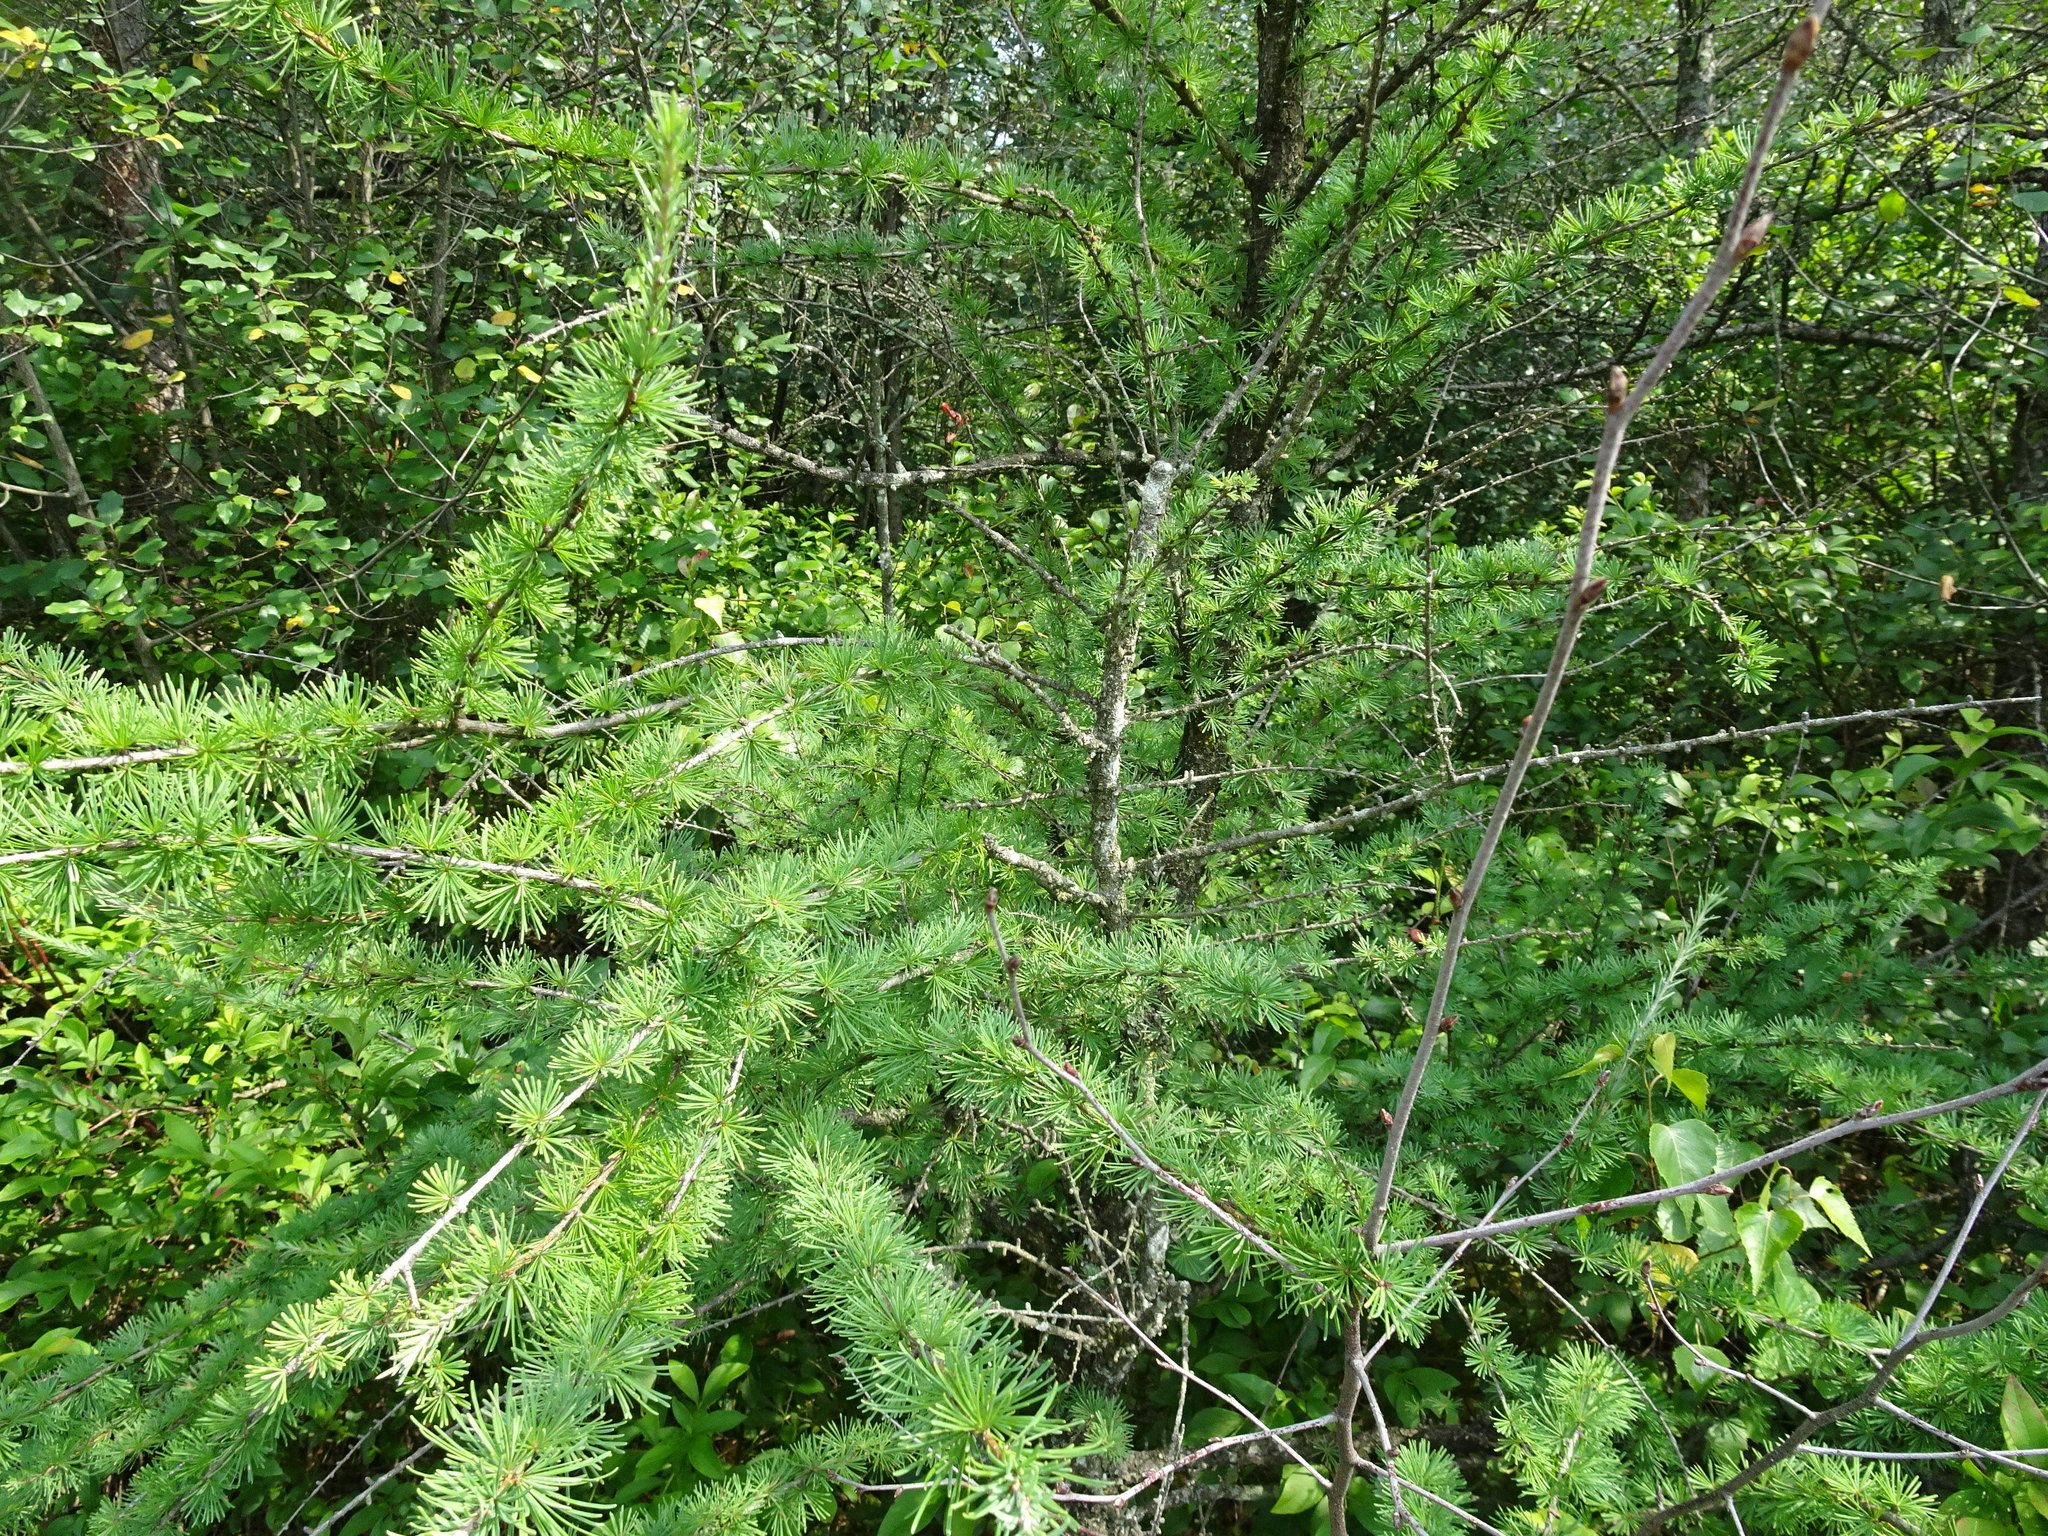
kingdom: Plantae
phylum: Tracheophyta
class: Pinopsida
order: Pinales
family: Pinaceae
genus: Larix
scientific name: Larix laricina
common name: American larch
